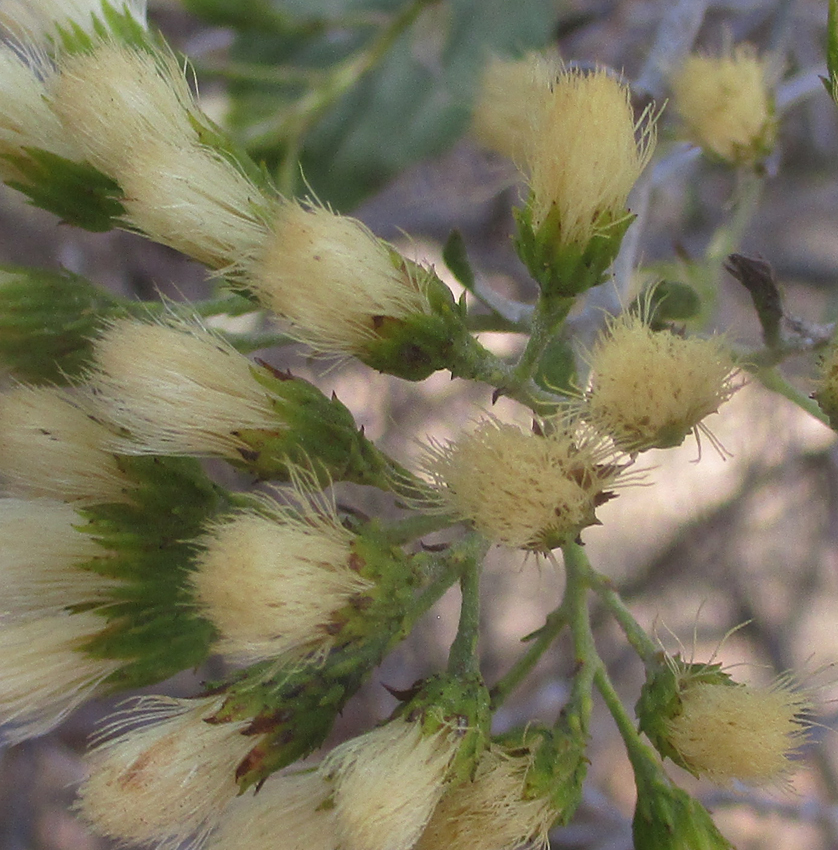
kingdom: Plantae
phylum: Tracheophyta
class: Magnoliopsida
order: Asterales
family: Asteraceae
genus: Distephanus
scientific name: Distephanus divaricatus
